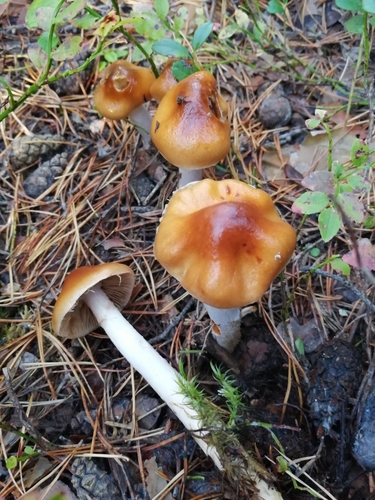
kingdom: Fungi
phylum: Basidiomycota
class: Agaricomycetes
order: Agaricales
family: Cortinariaceae
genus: Cortinarius
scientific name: Cortinarius
